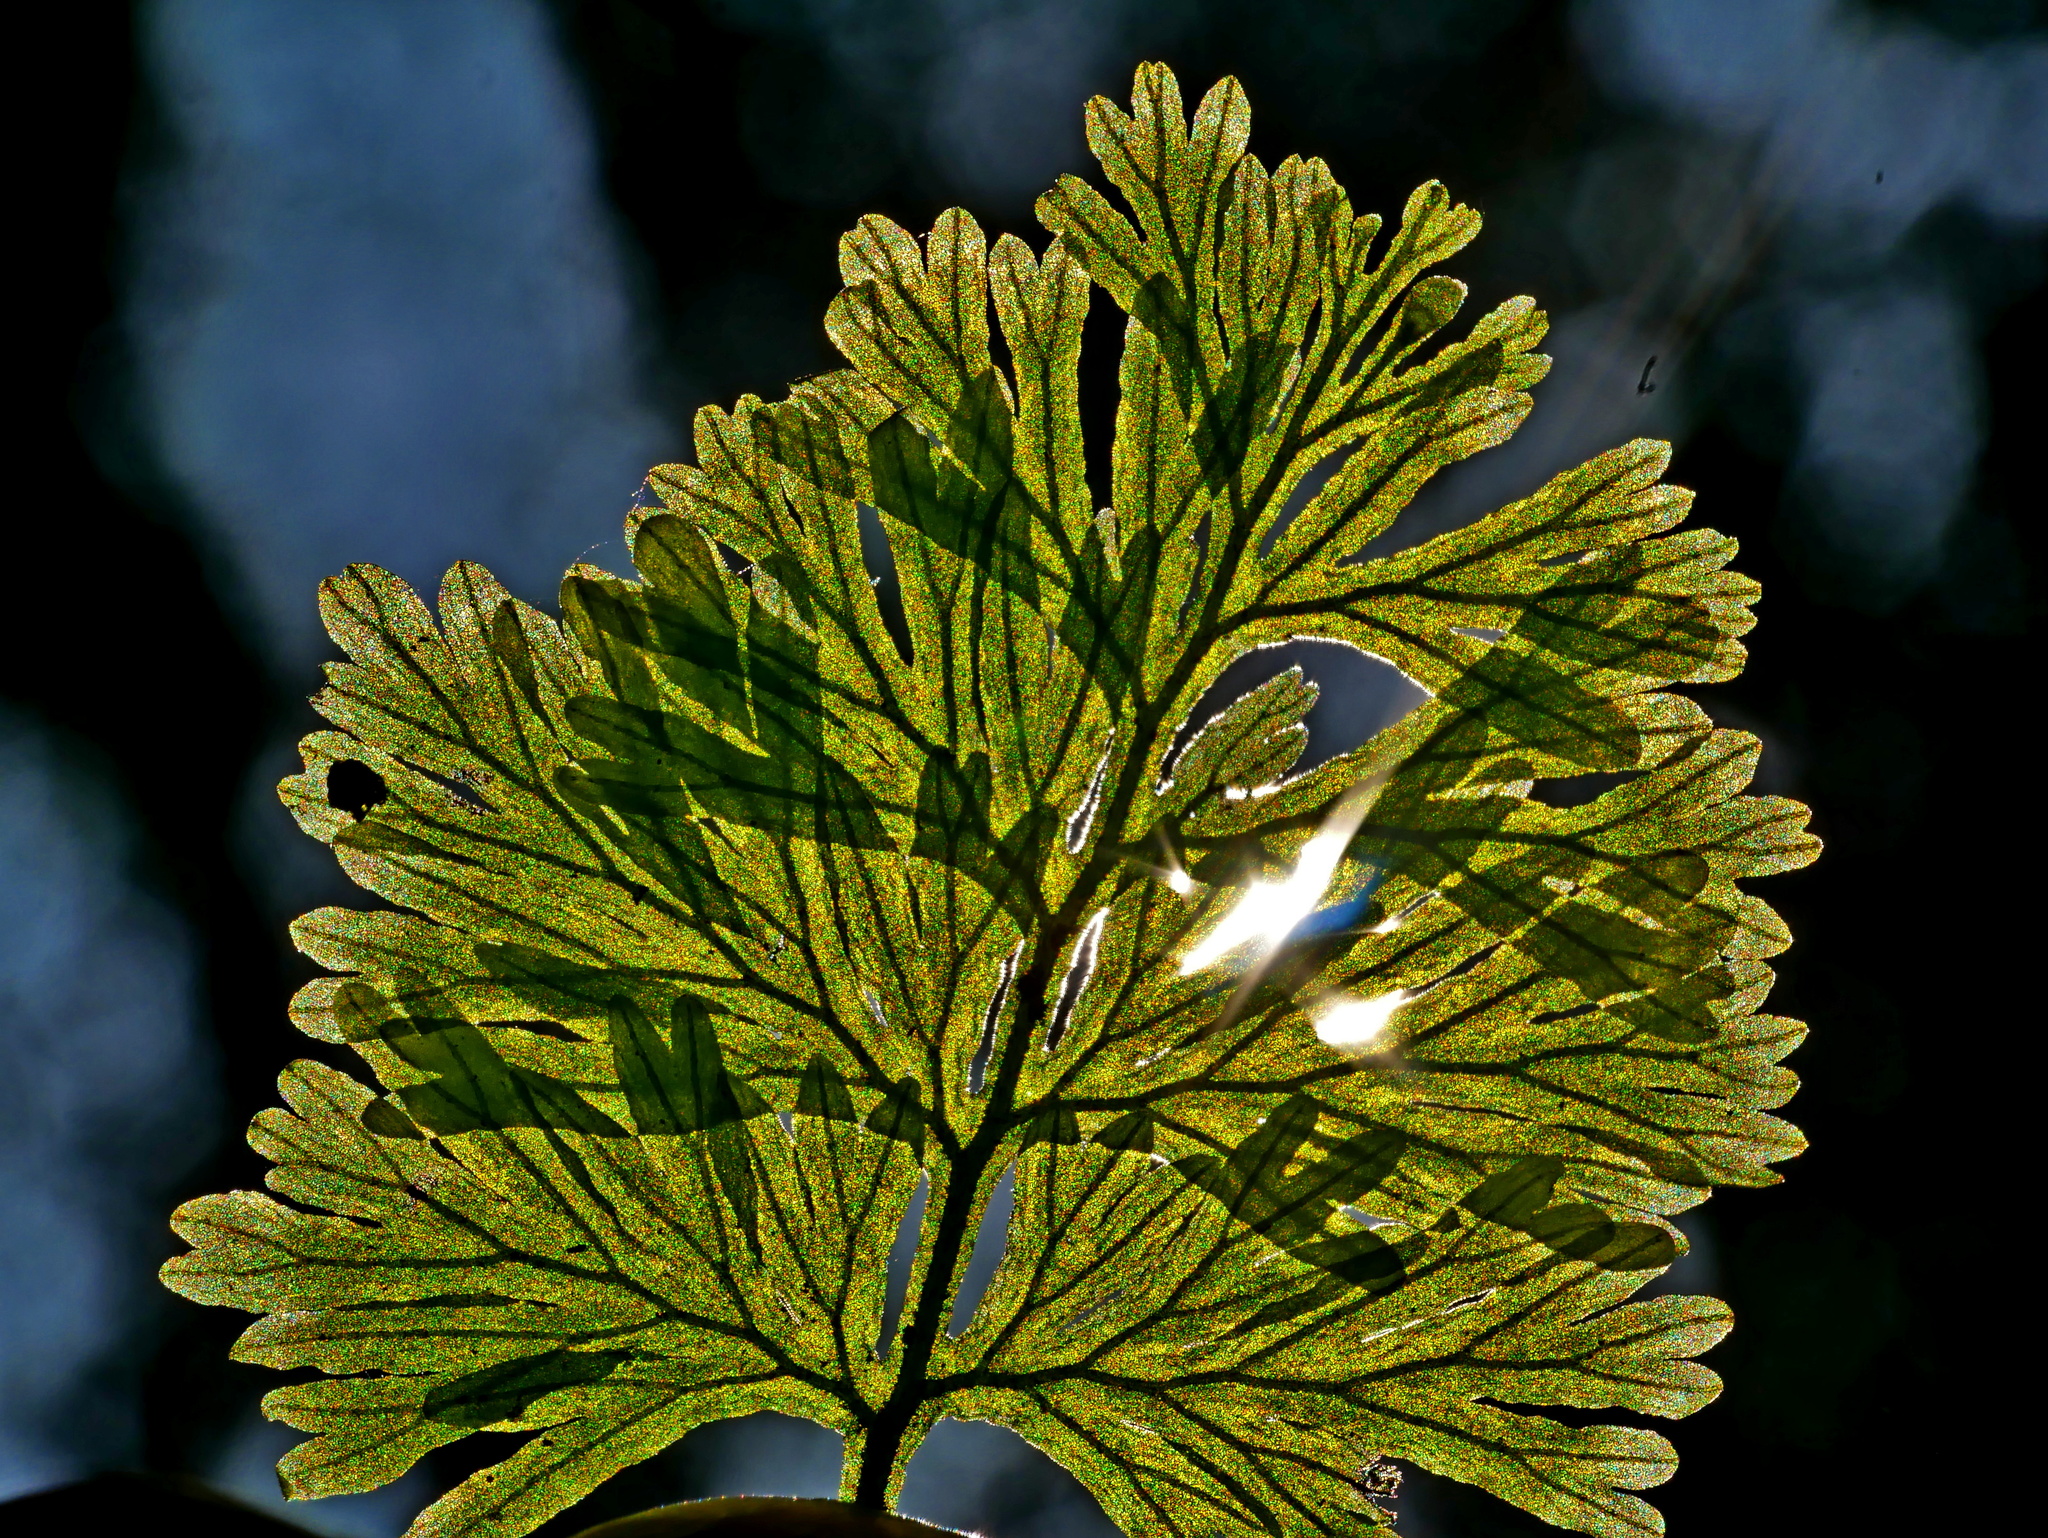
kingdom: Plantae
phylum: Tracheophyta
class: Polypodiopsida
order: Hymenophyllales
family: Hymenophyllaceae
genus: Crepidomanes
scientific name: Crepidomanes latealatum
